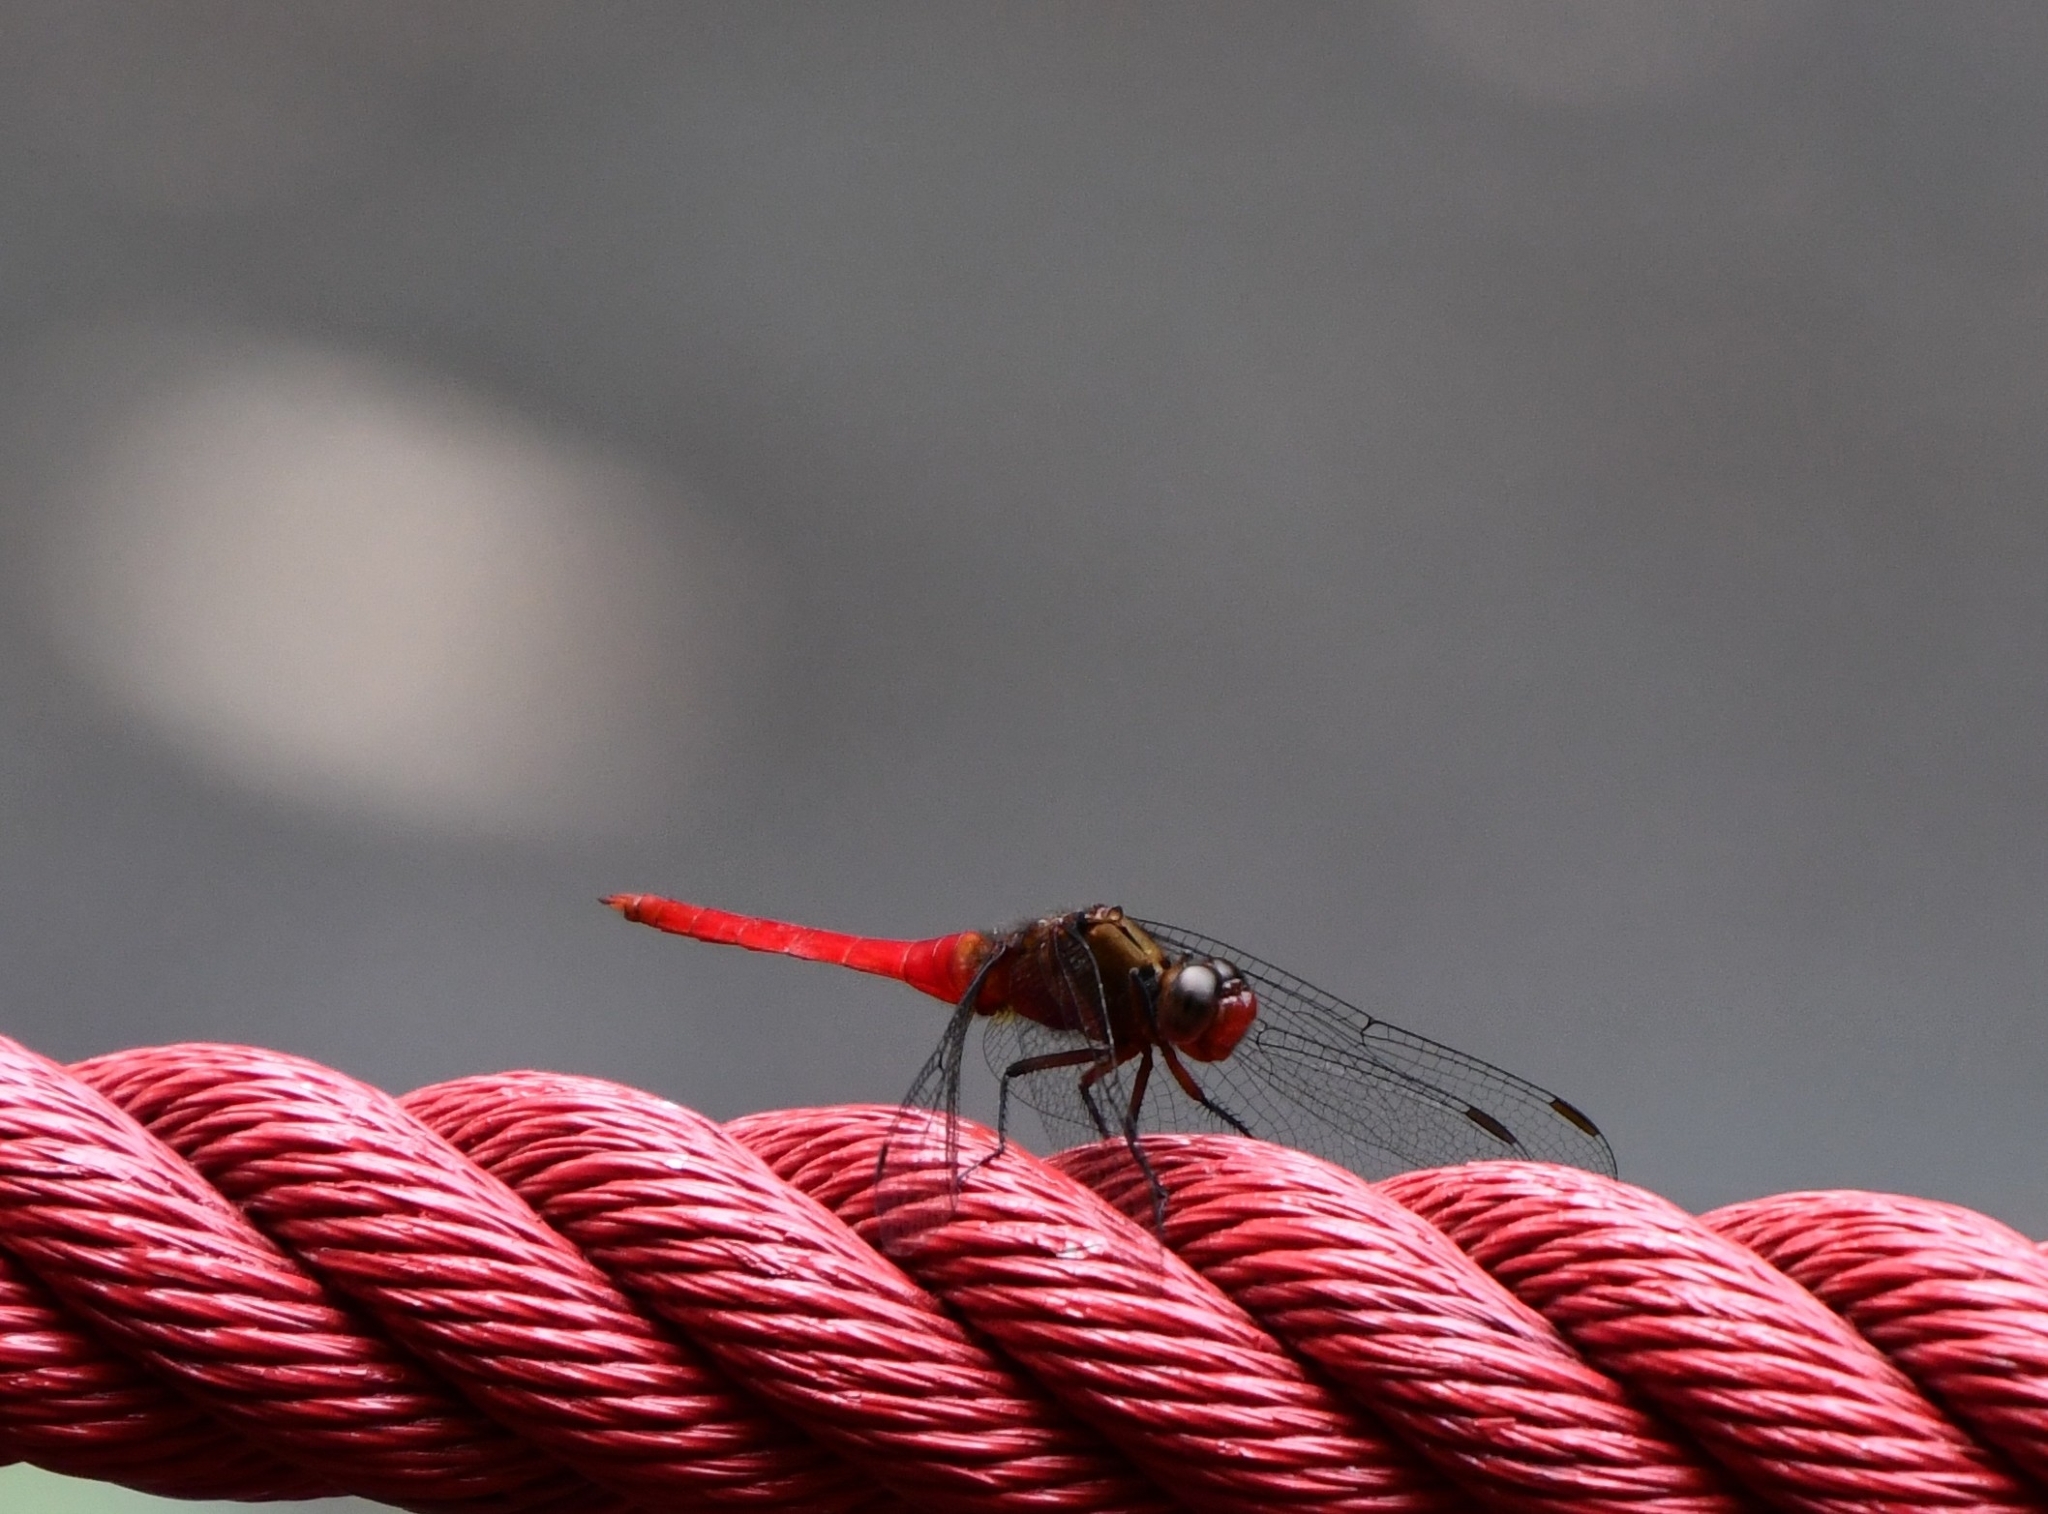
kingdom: Animalia
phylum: Arthropoda
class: Insecta
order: Odonata
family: Libellulidae
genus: Orthetrum
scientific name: Orthetrum chrysis
